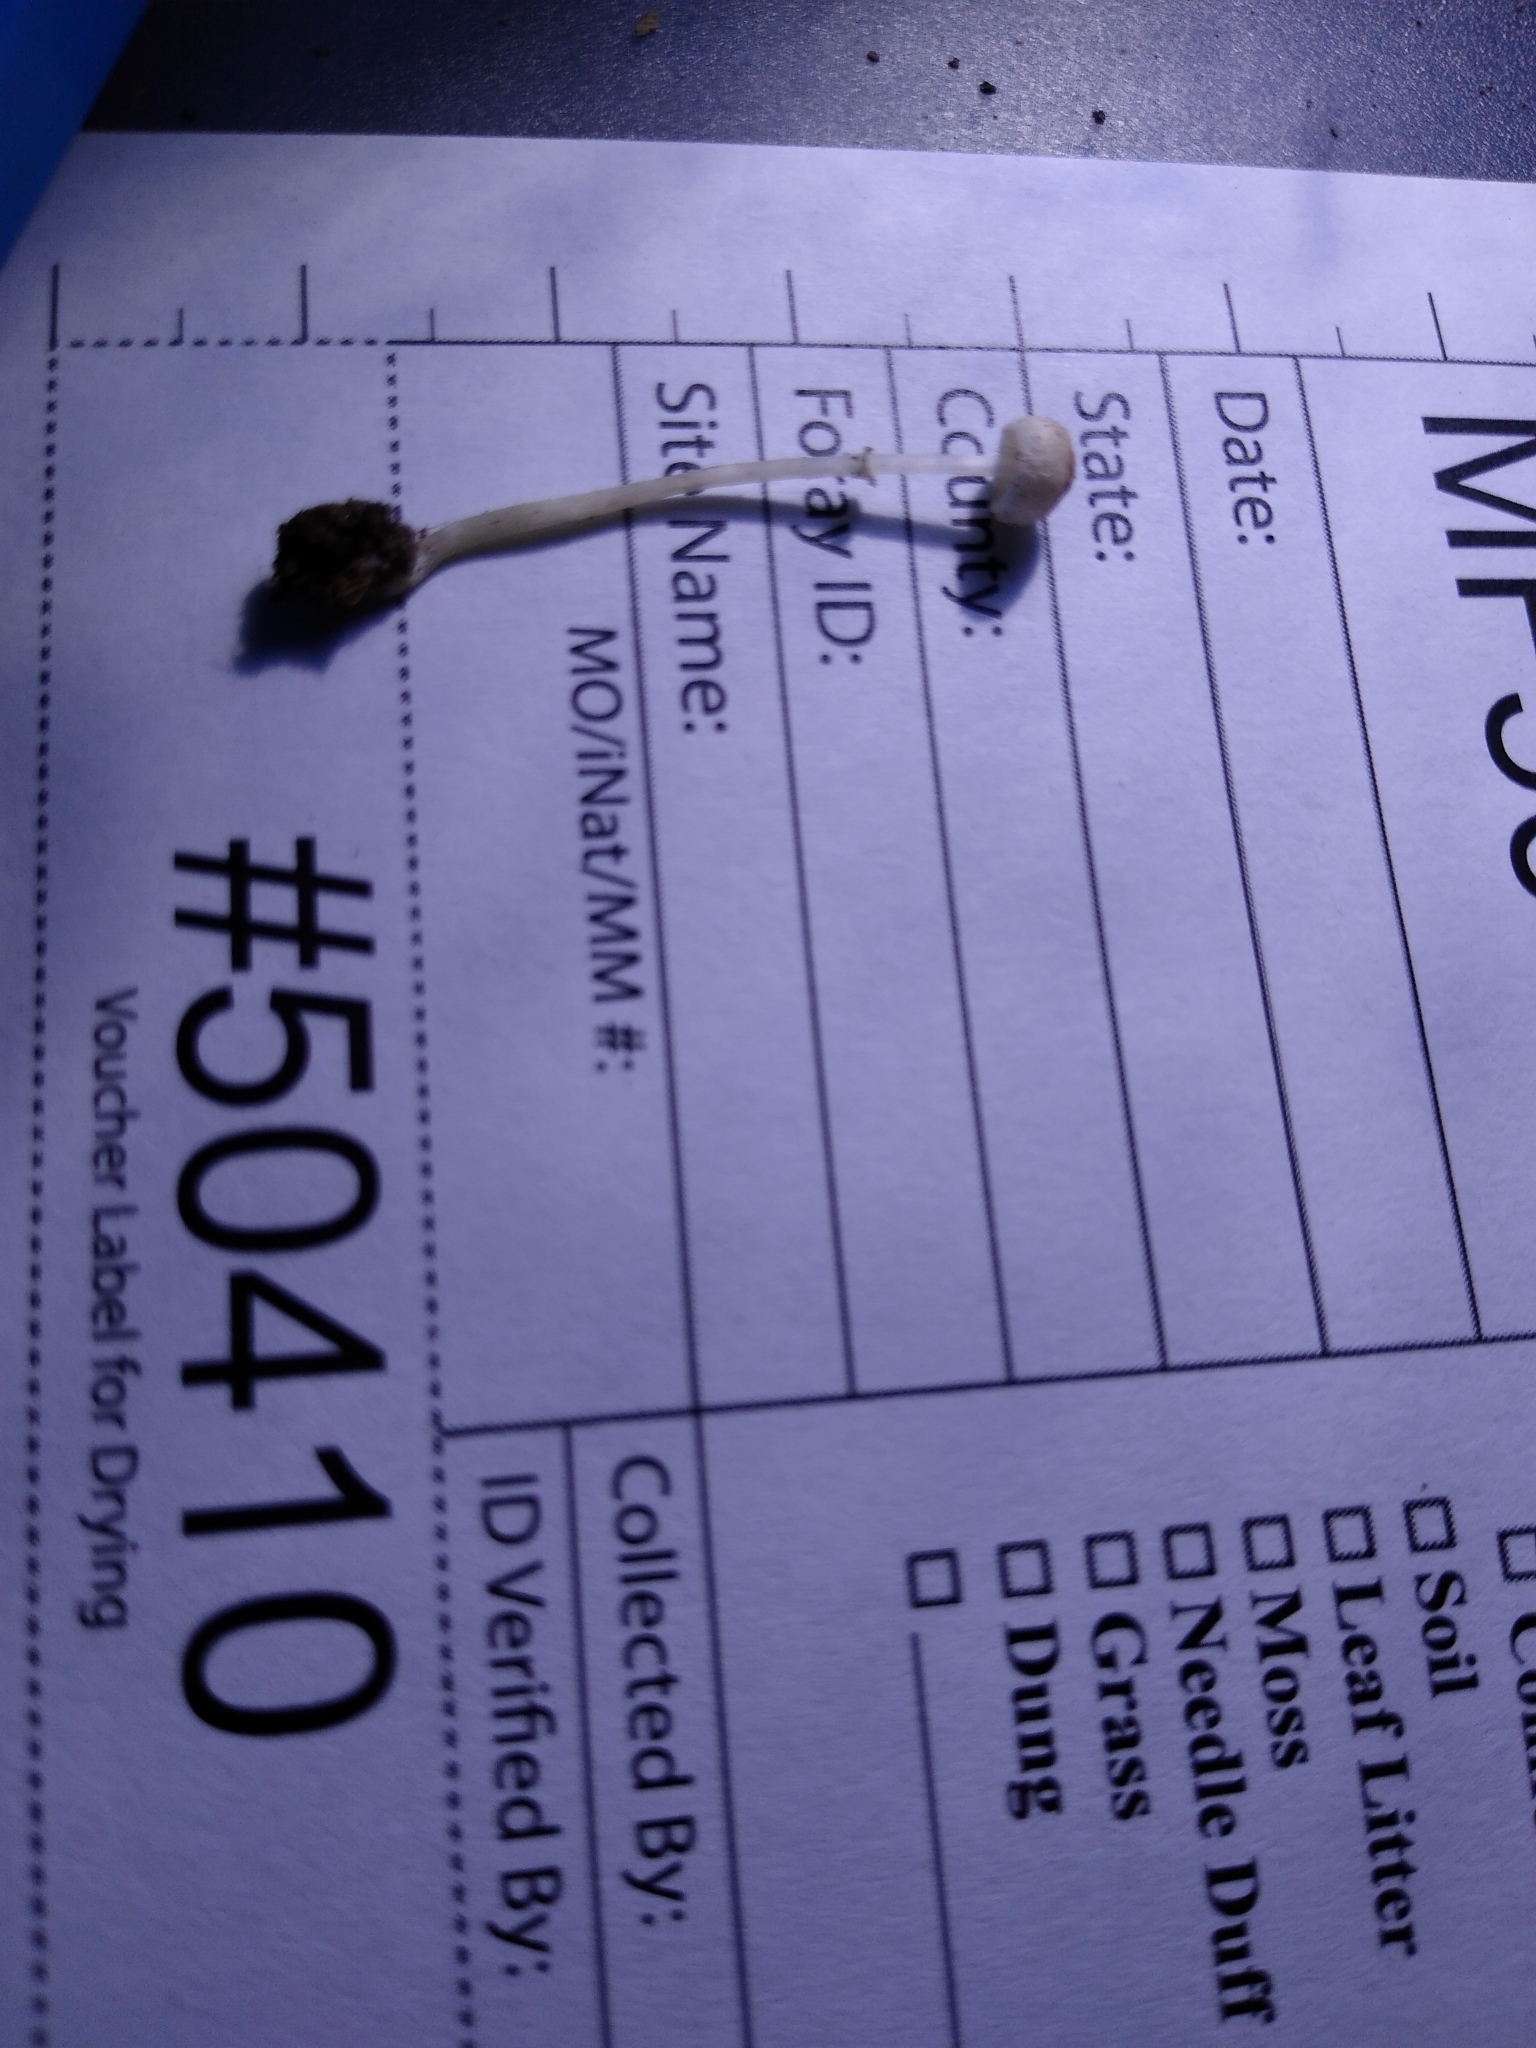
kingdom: Fungi
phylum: Basidiomycota
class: Agaricomycetes
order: Agaricales
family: Agaricaceae
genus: Leucoagaricus
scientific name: Leucoagaricus coerulescens
